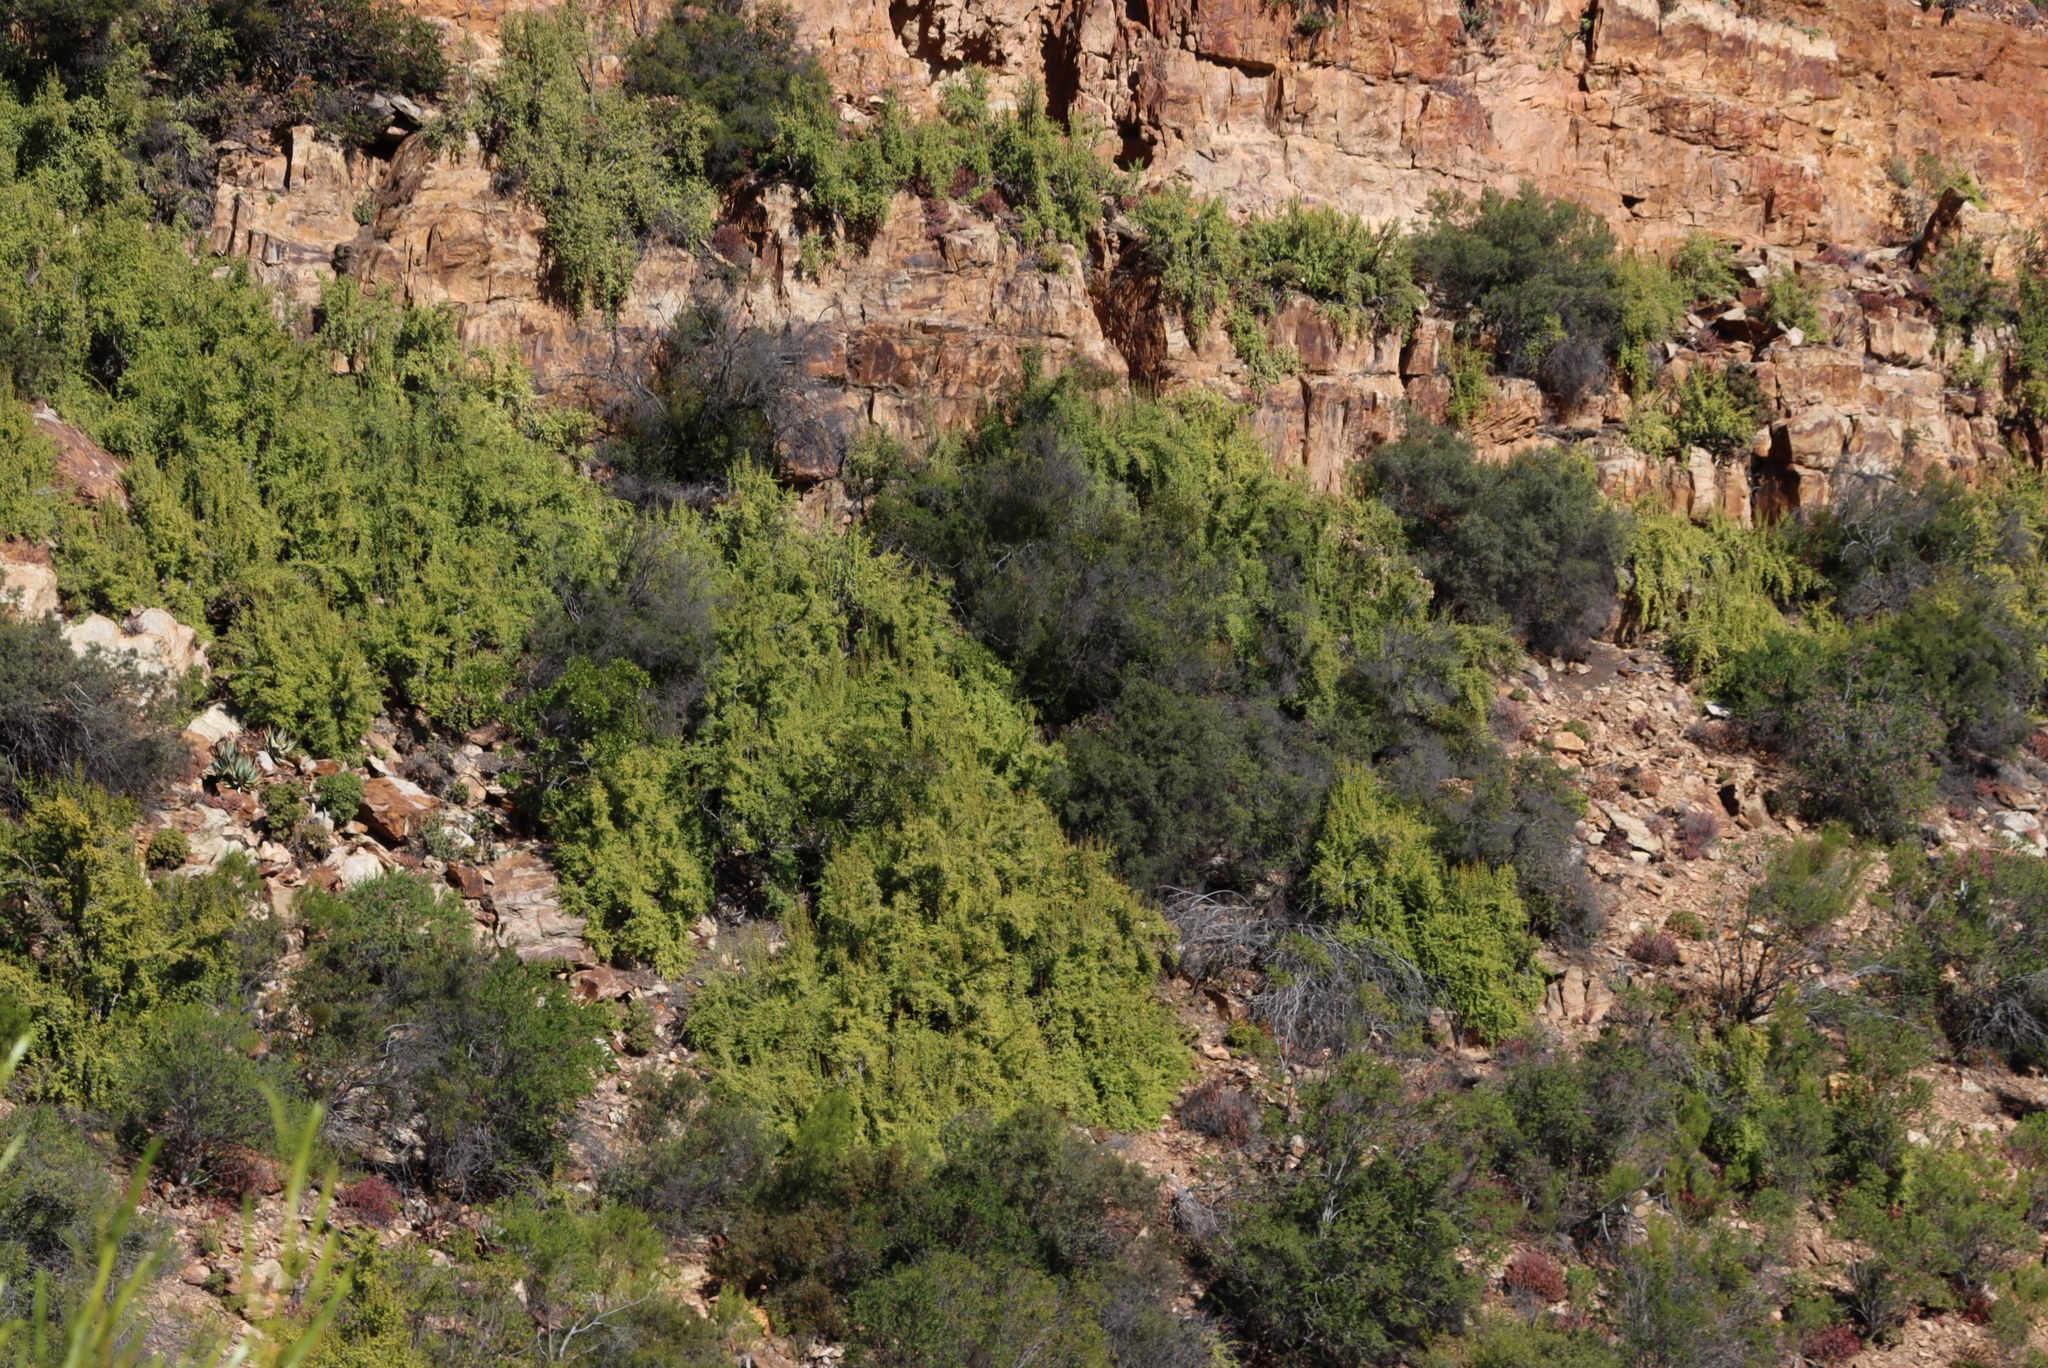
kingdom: Plantae
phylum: Tracheophyta
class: Magnoliopsida
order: Caryophyllales
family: Didiereaceae
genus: Portulacaria
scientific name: Portulacaria afra
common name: Elephant-bush
